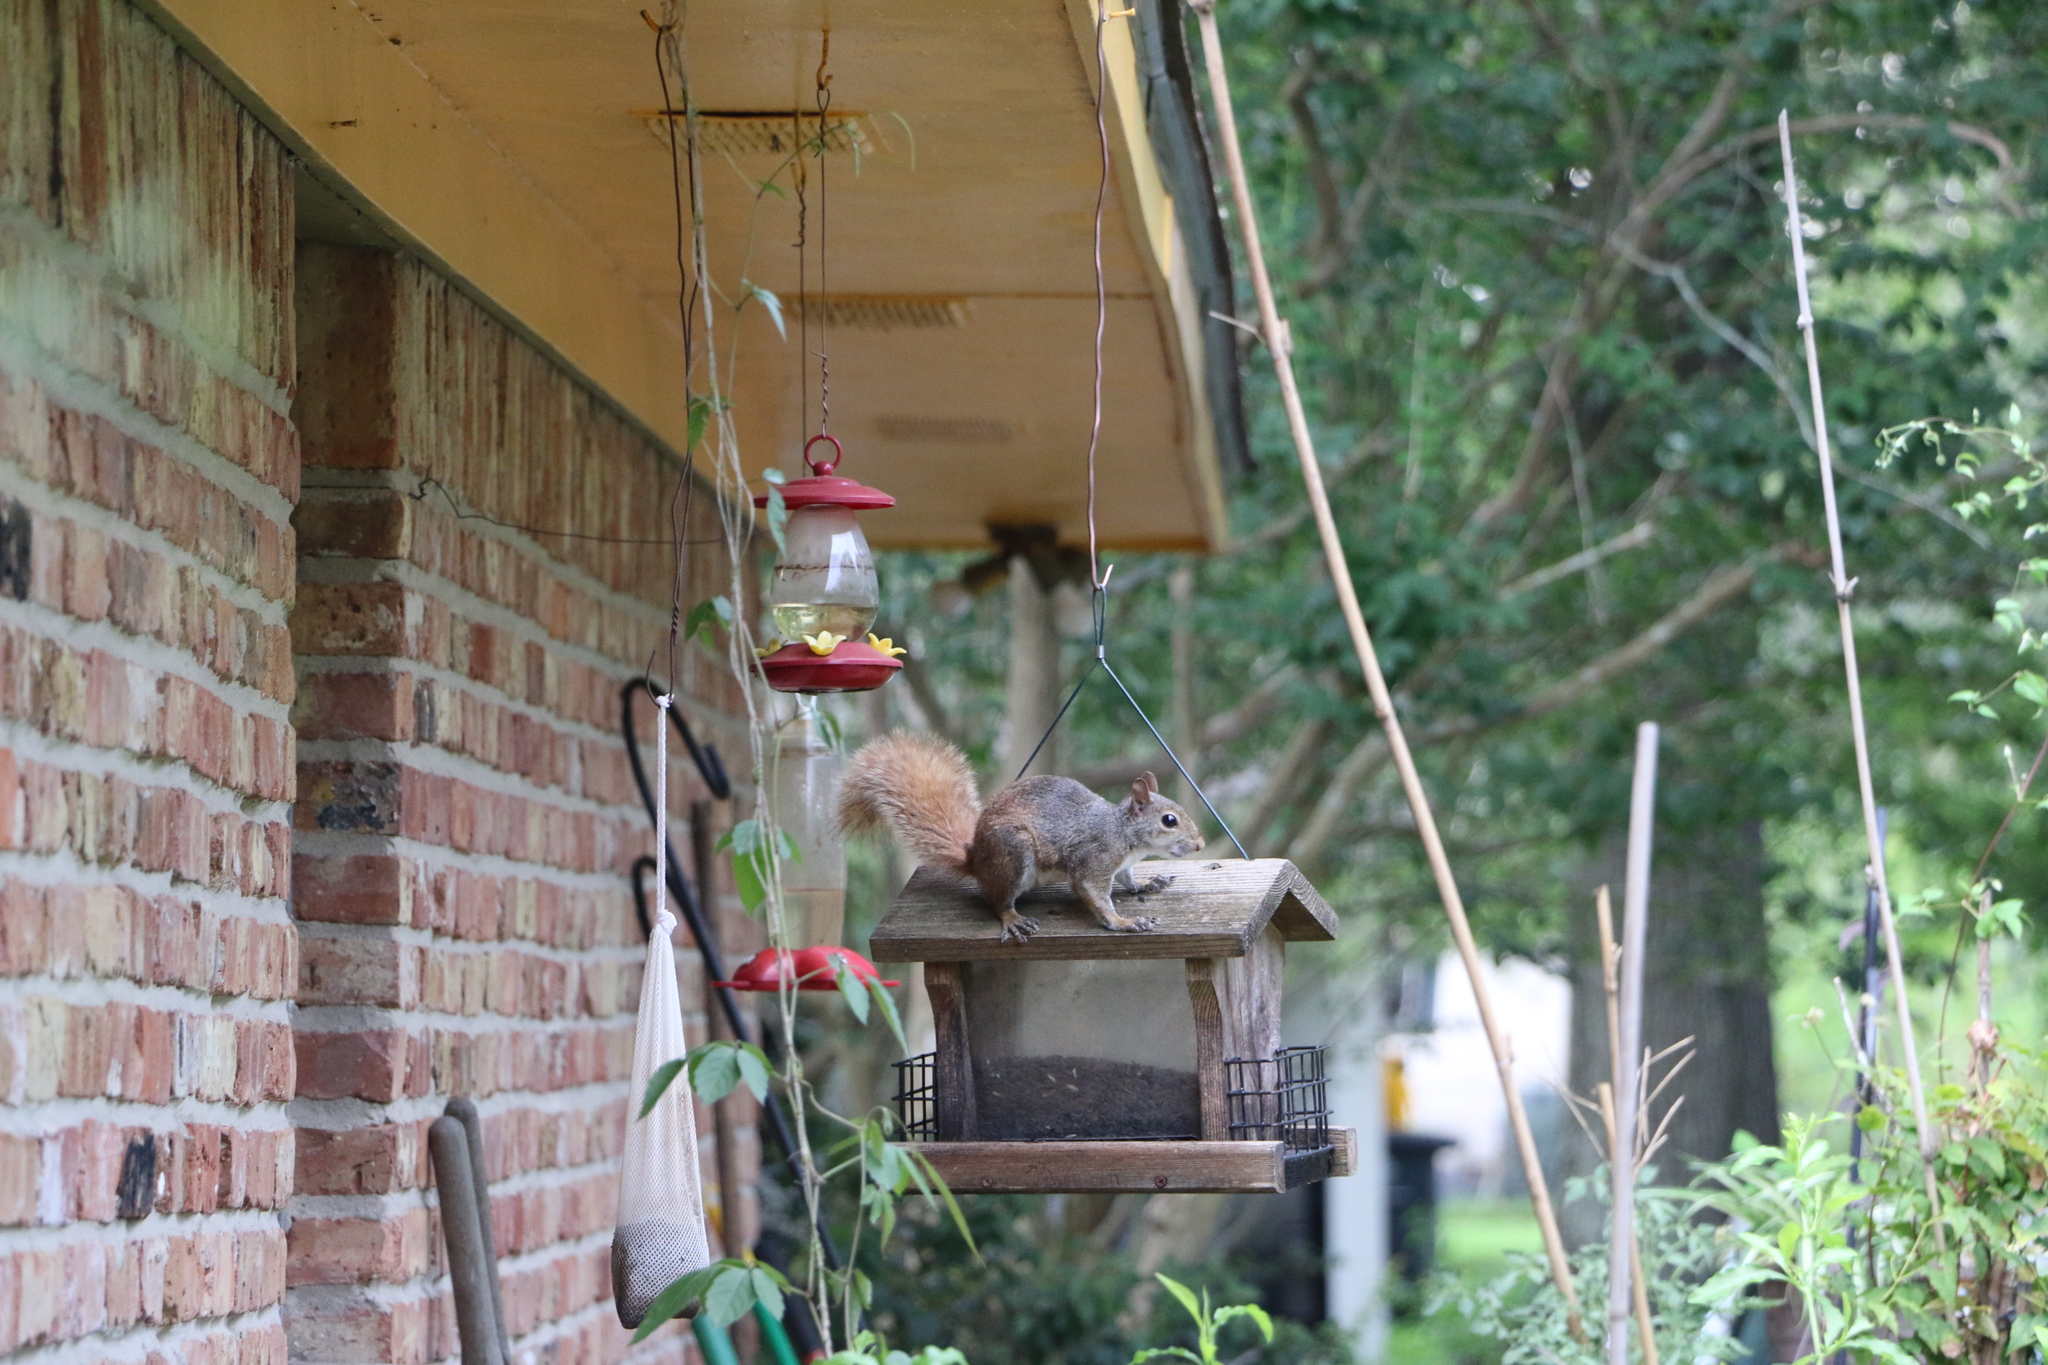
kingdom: Animalia
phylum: Chordata
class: Mammalia
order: Rodentia
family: Sciuridae
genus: Sciurus
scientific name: Sciurus carolinensis
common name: Eastern gray squirrel
